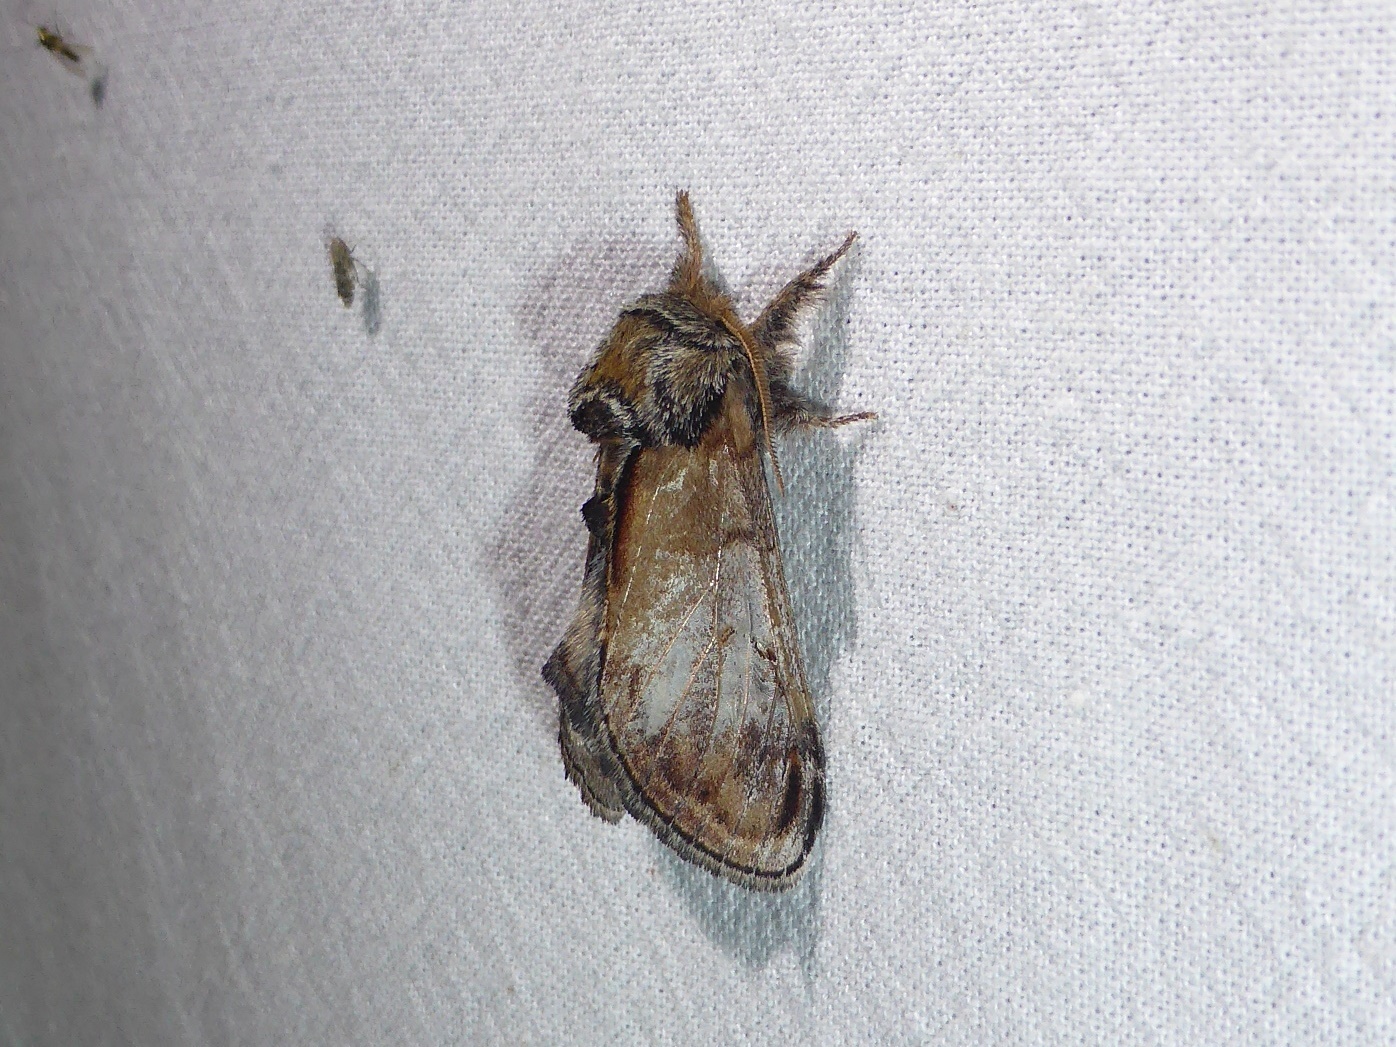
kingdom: Animalia
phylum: Arthropoda
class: Insecta
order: Lepidoptera
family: Notodontidae
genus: Notodonta
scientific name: Notodonta ziczac
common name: Pebble prominent
